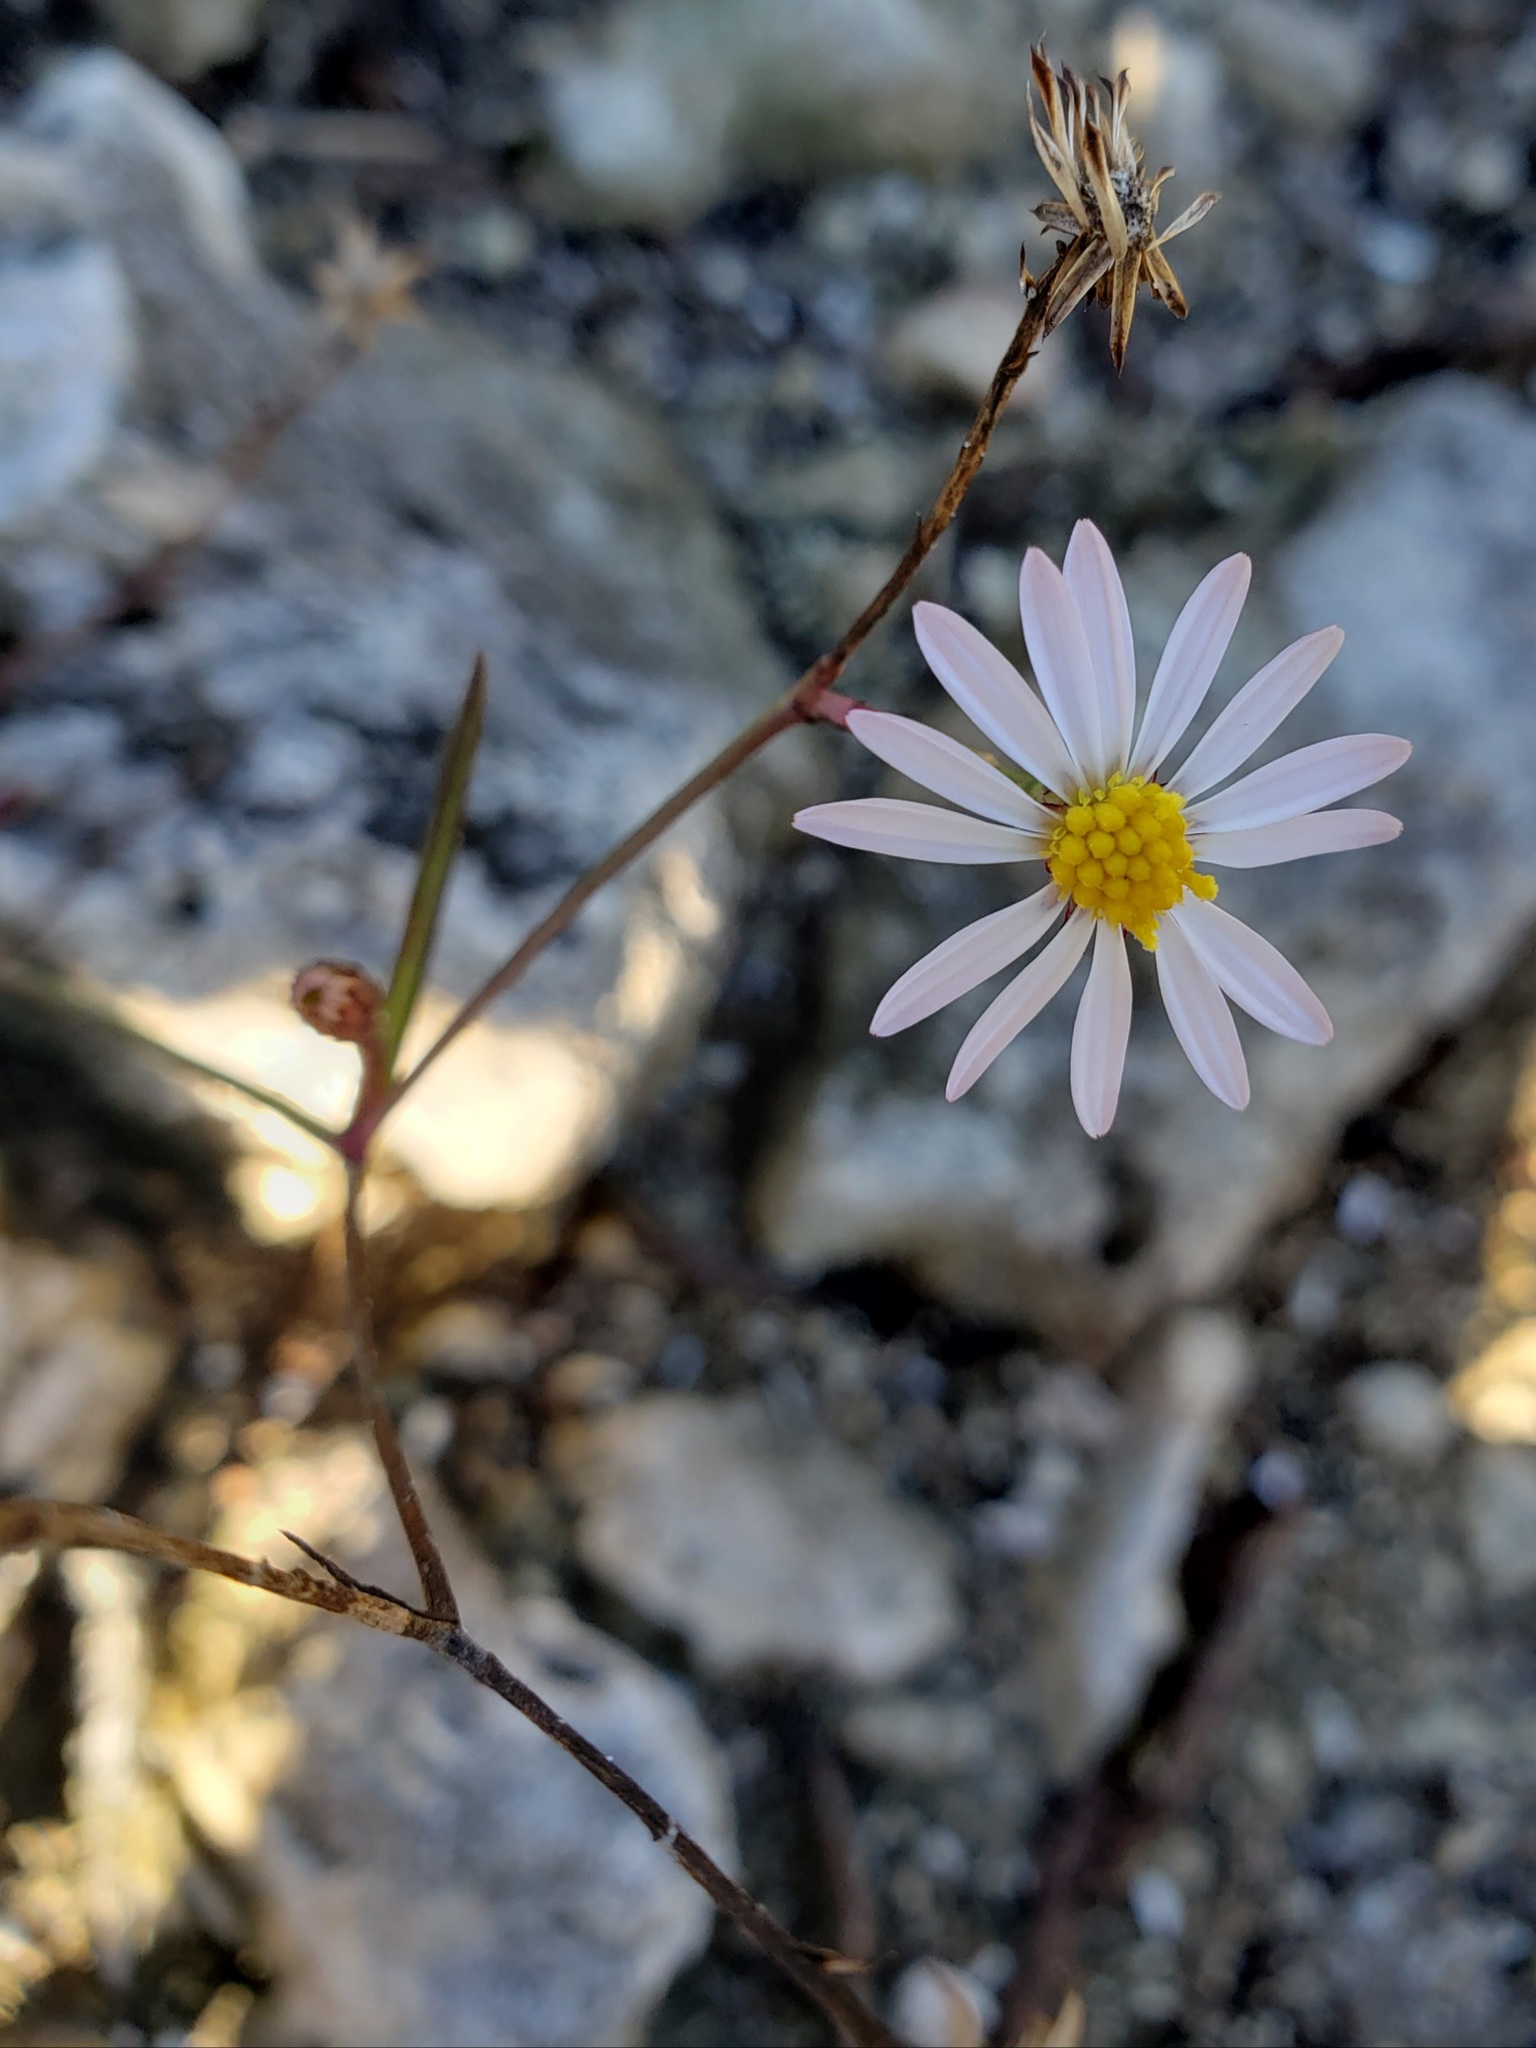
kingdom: Plantae
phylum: Tracheophyta
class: Magnoliopsida
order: Asterales
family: Asteraceae
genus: Symphyotrichum
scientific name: Symphyotrichum tenuifolium
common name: Perennial salt-marsh aster
